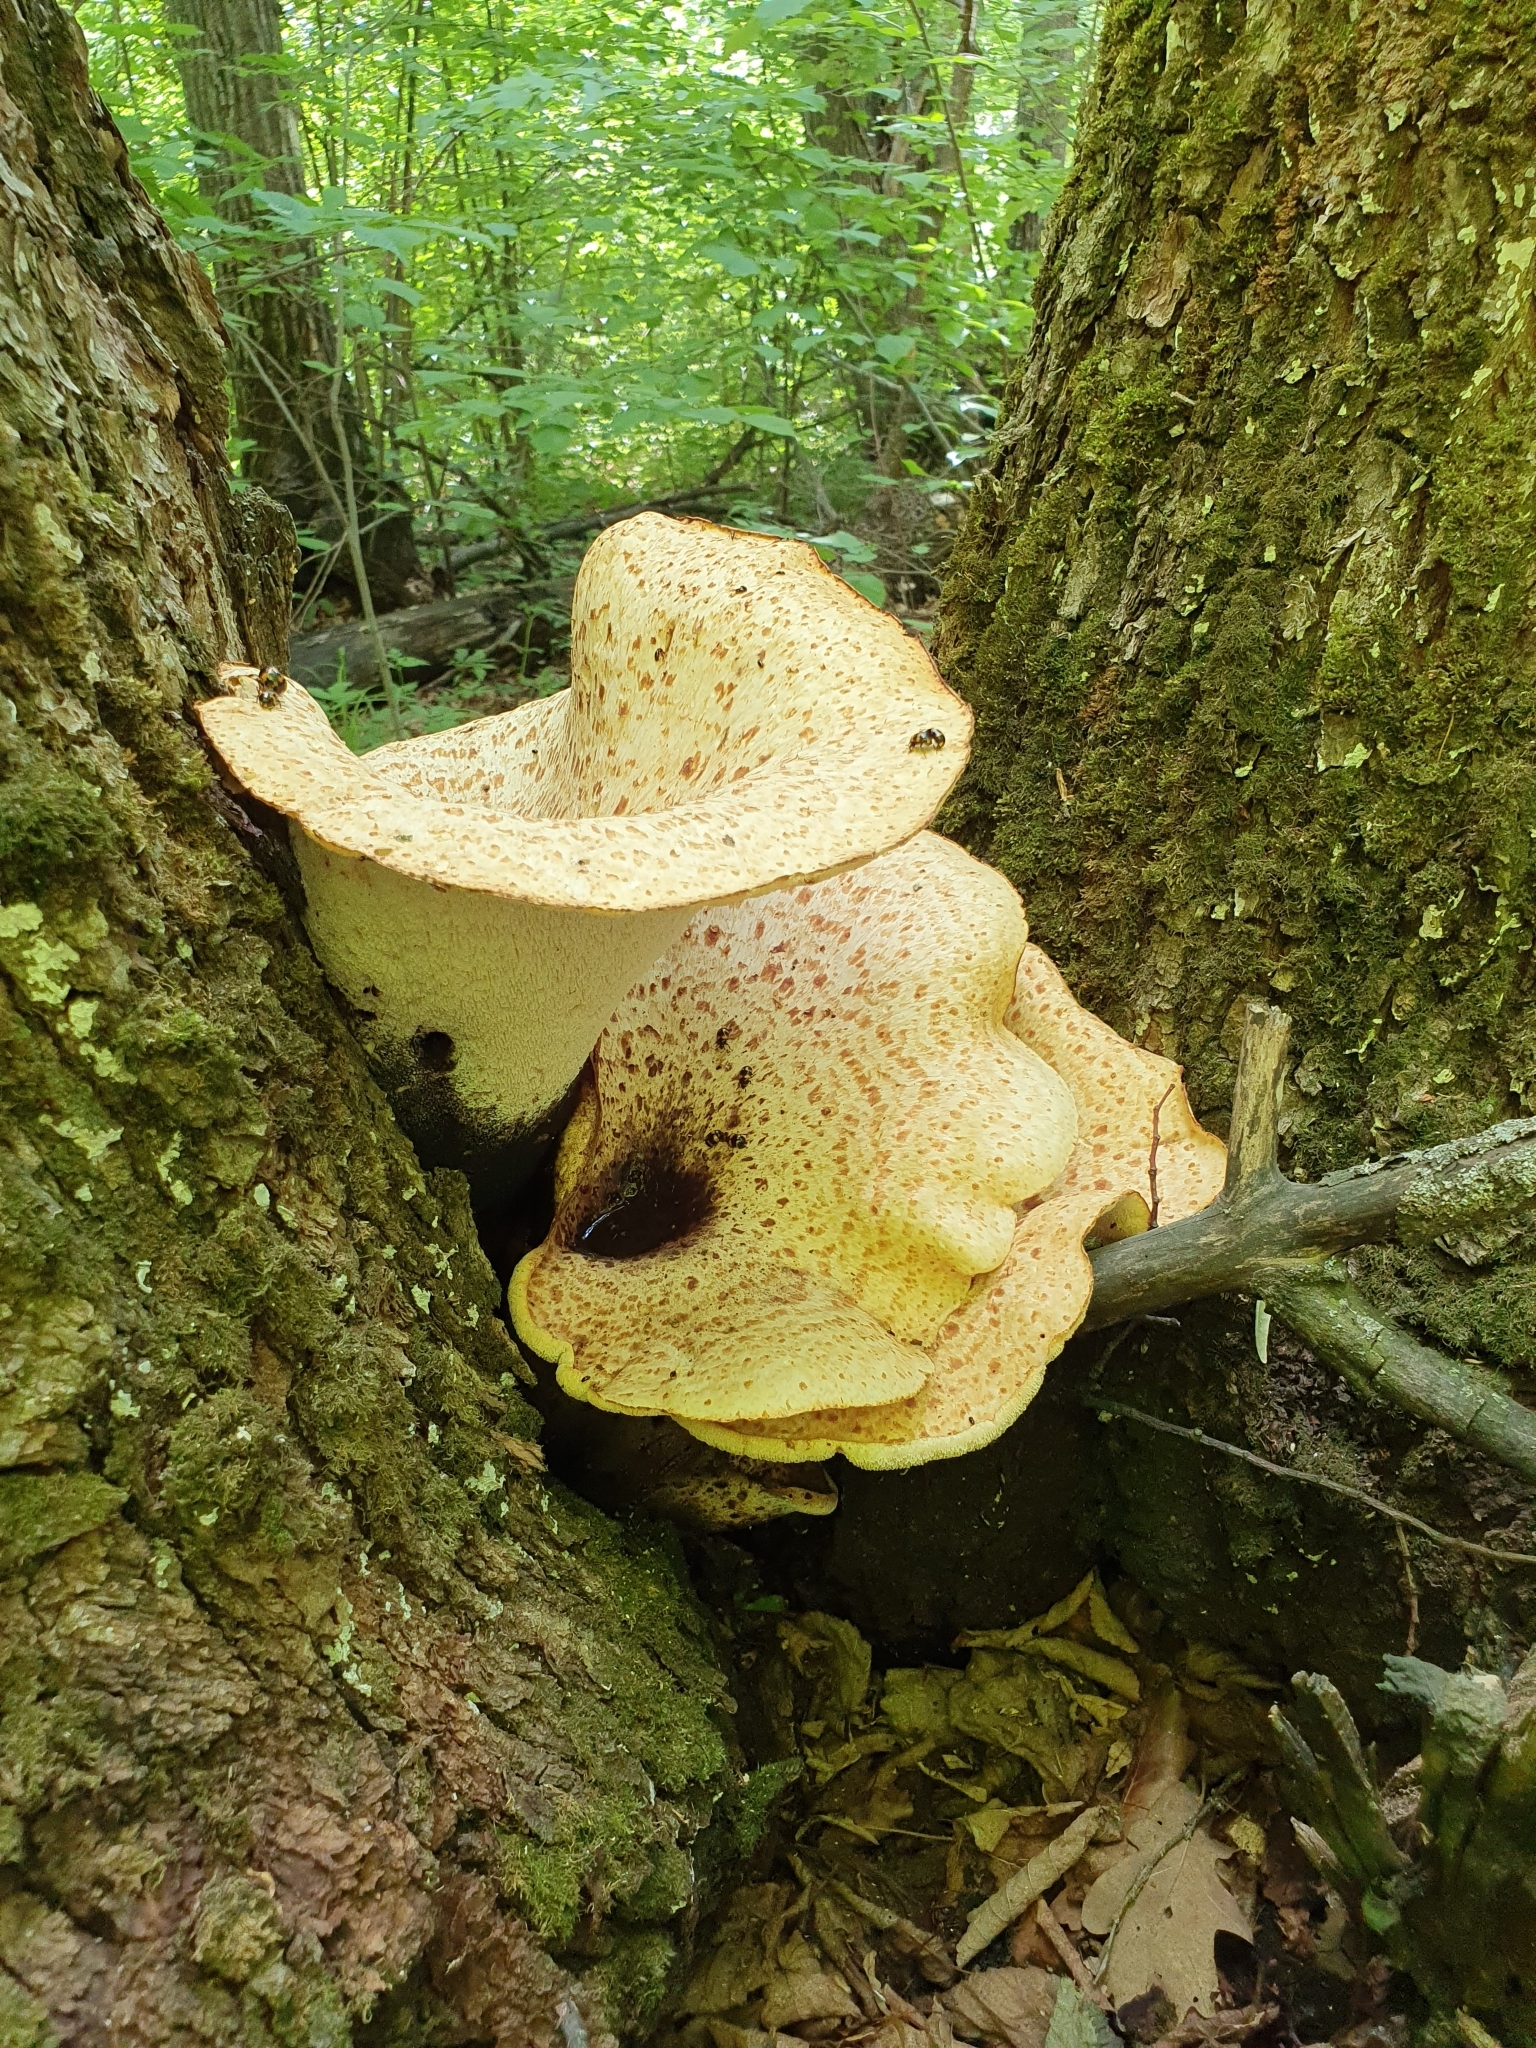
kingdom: Fungi
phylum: Basidiomycota
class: Agaricomycetes
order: Polyporales
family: Polyporaceae
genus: Cerioporus
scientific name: Cerioporus squamosus
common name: Dryad's saddle
